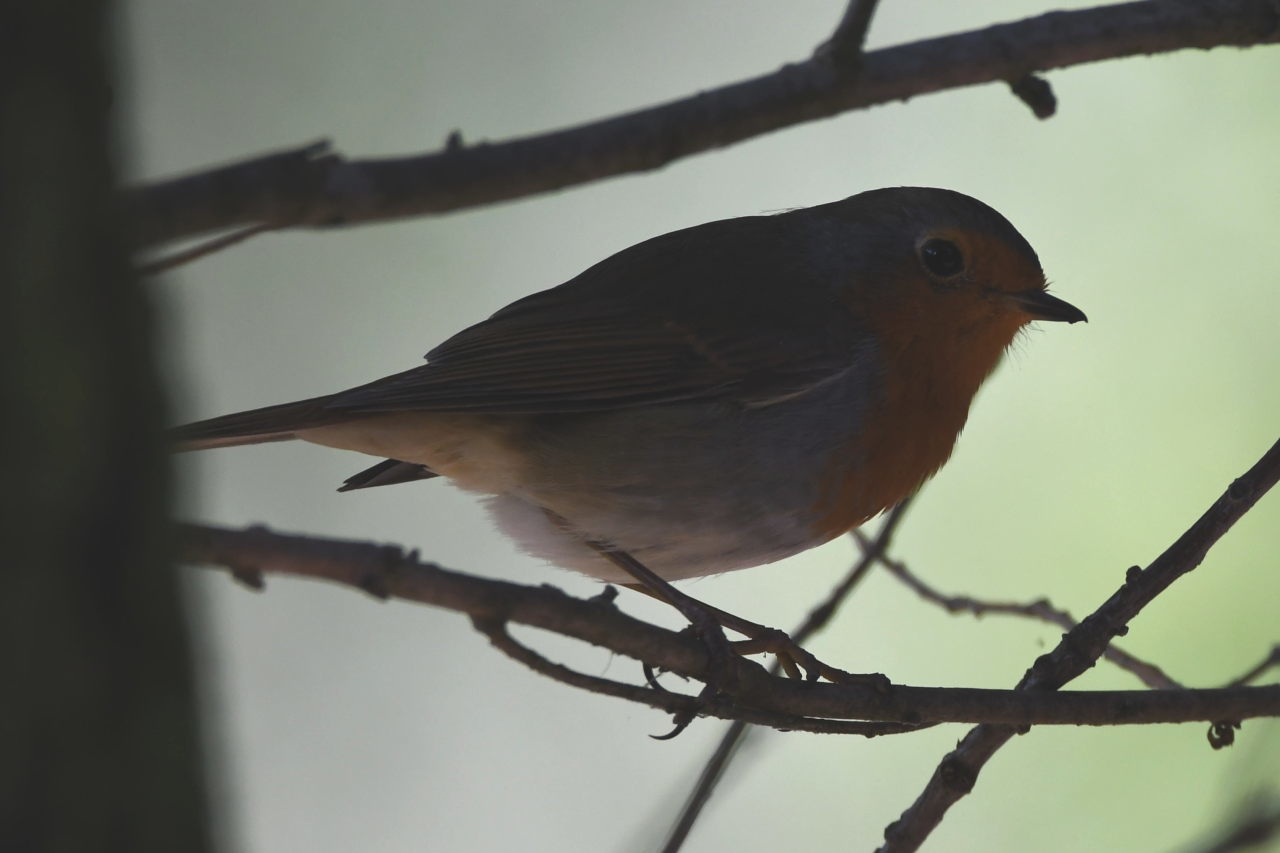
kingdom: Animalia
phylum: Chordata
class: Aves
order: Passeriformes
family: Muscicapidae
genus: Erithacus
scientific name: Erithacus rubecula
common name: European robin
